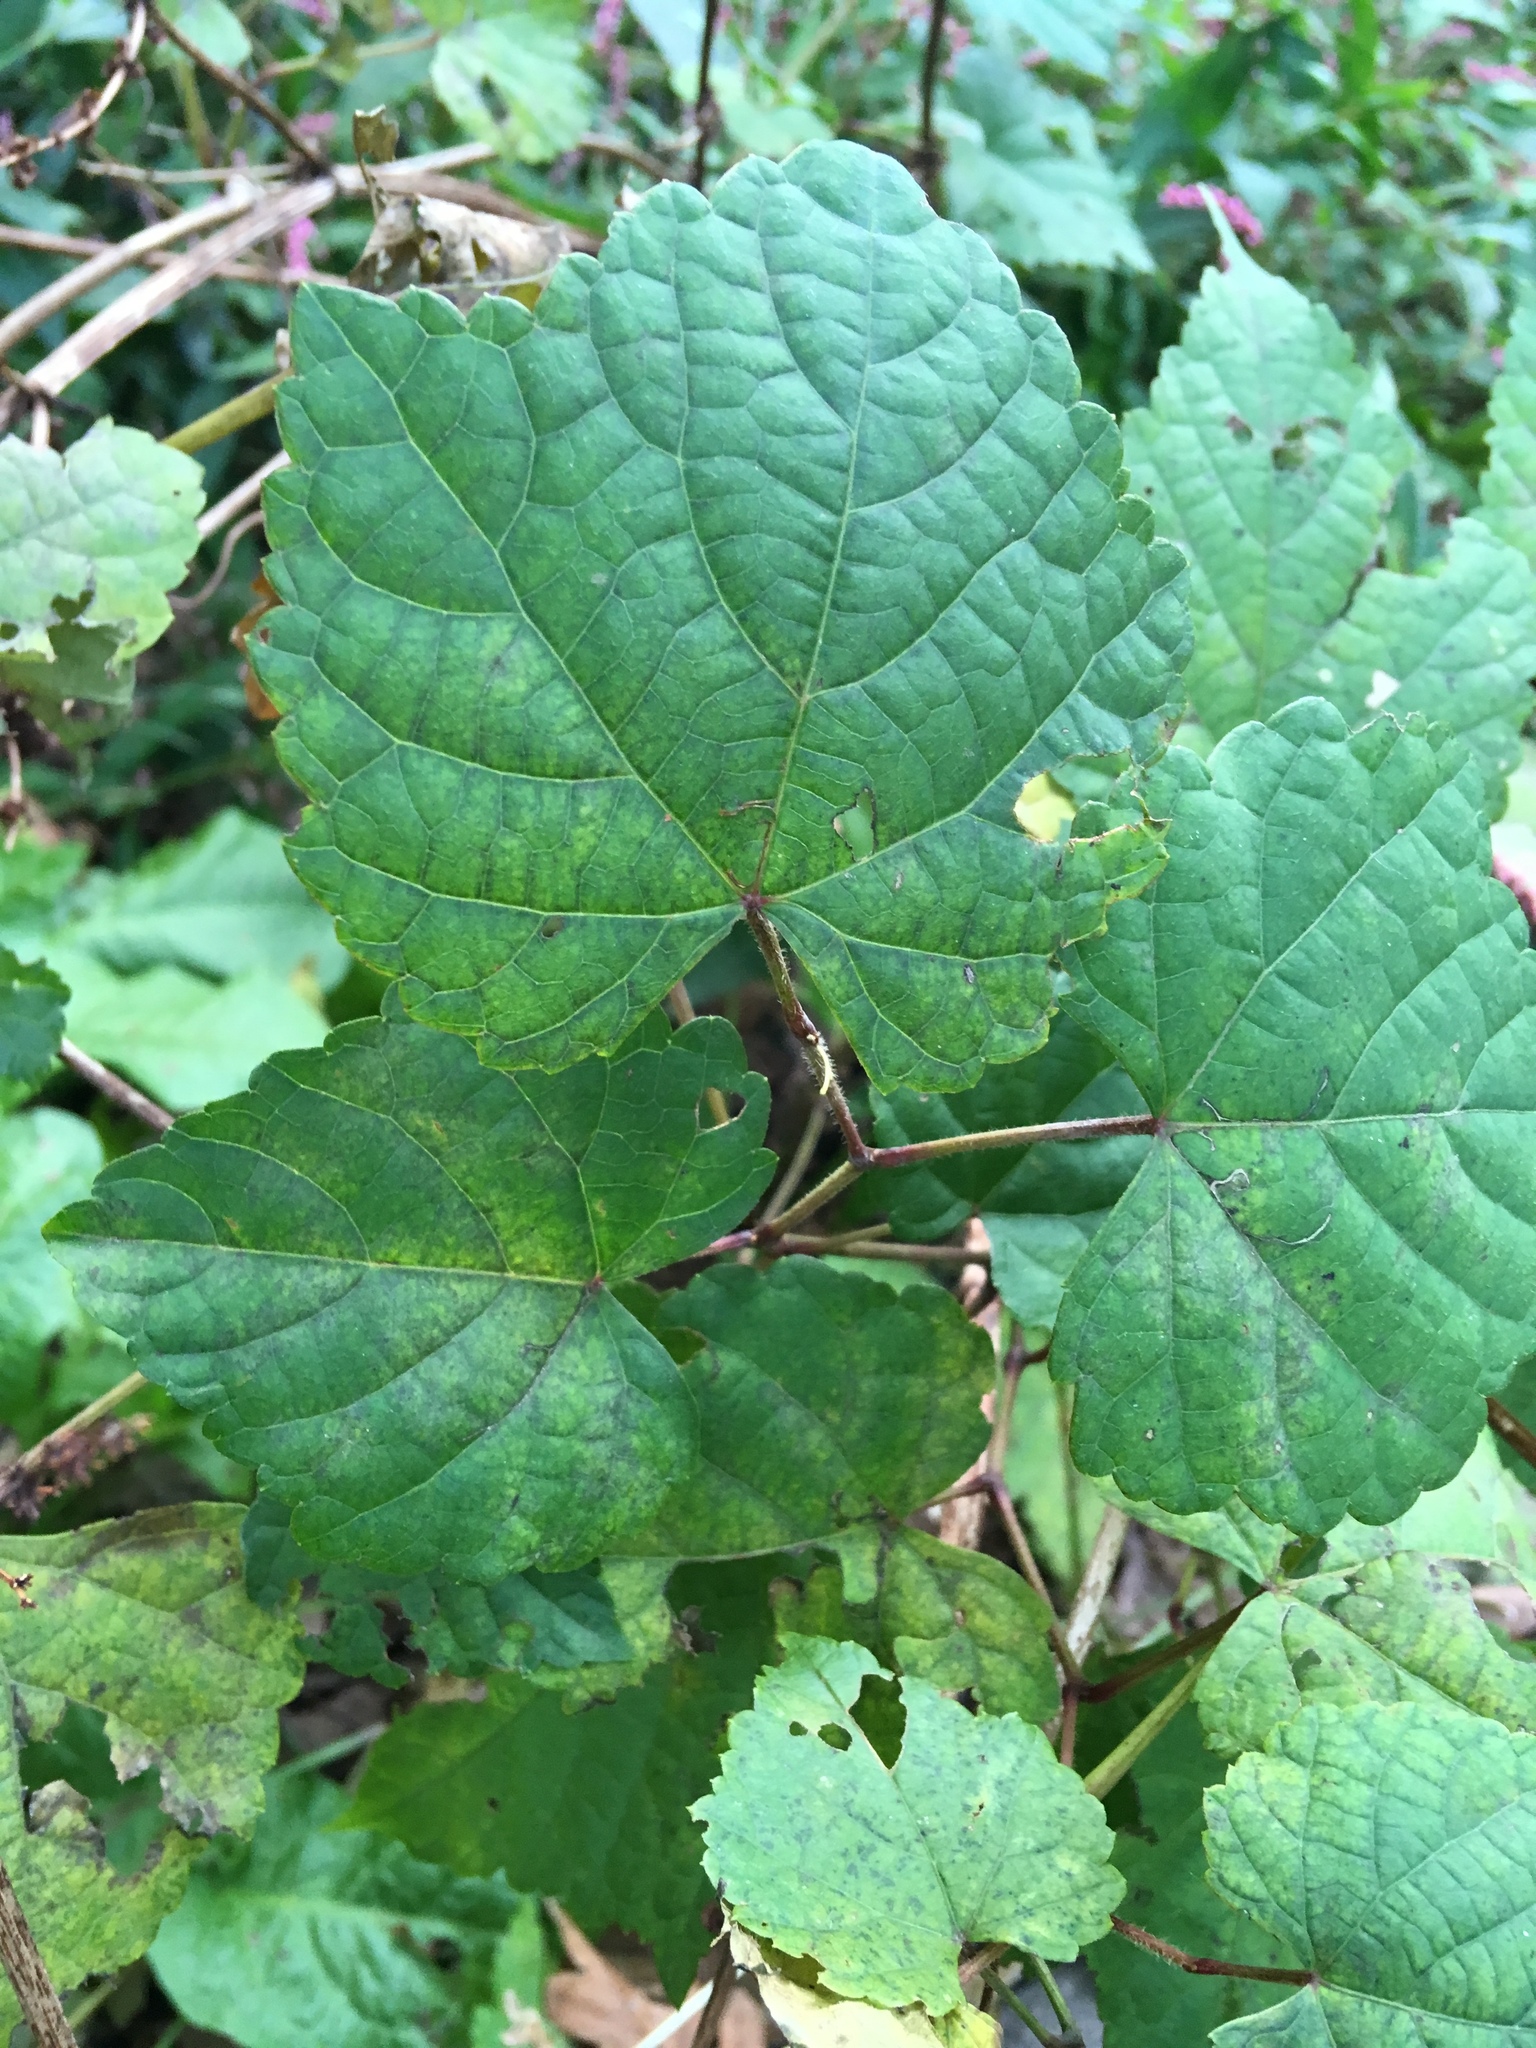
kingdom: Plantae
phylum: Tracheophyta
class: Magnoliopsida
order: Vitales
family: Vitaceae
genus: Ampelopsis
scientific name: Ampelopsis glandulosa
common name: Amur peppervine
